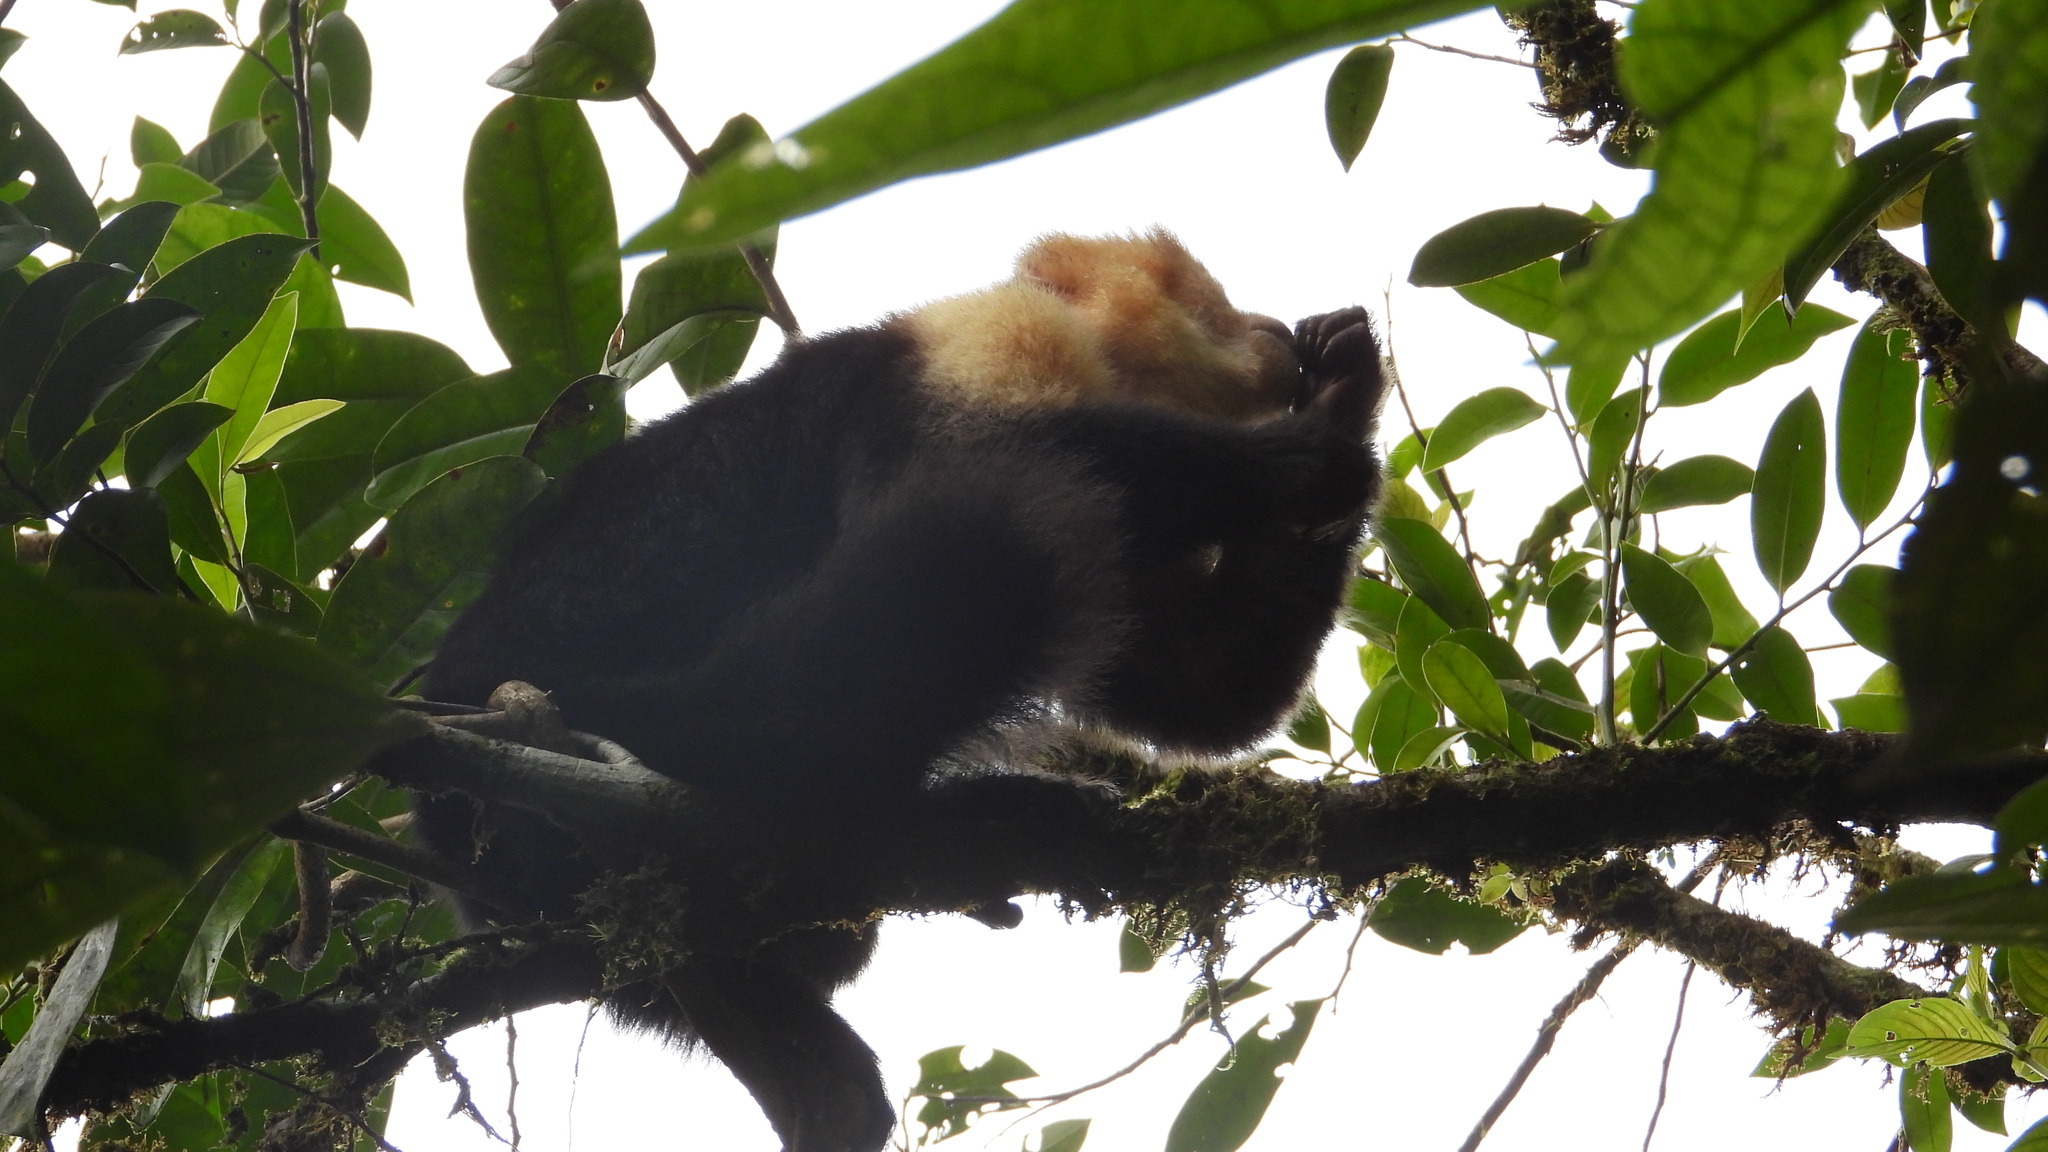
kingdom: Animalia
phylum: Chordata
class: Mammalia
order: Primates
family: Cebidae
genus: Cebus
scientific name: Cebus imitator
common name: Panamanian white-faced capuchin
